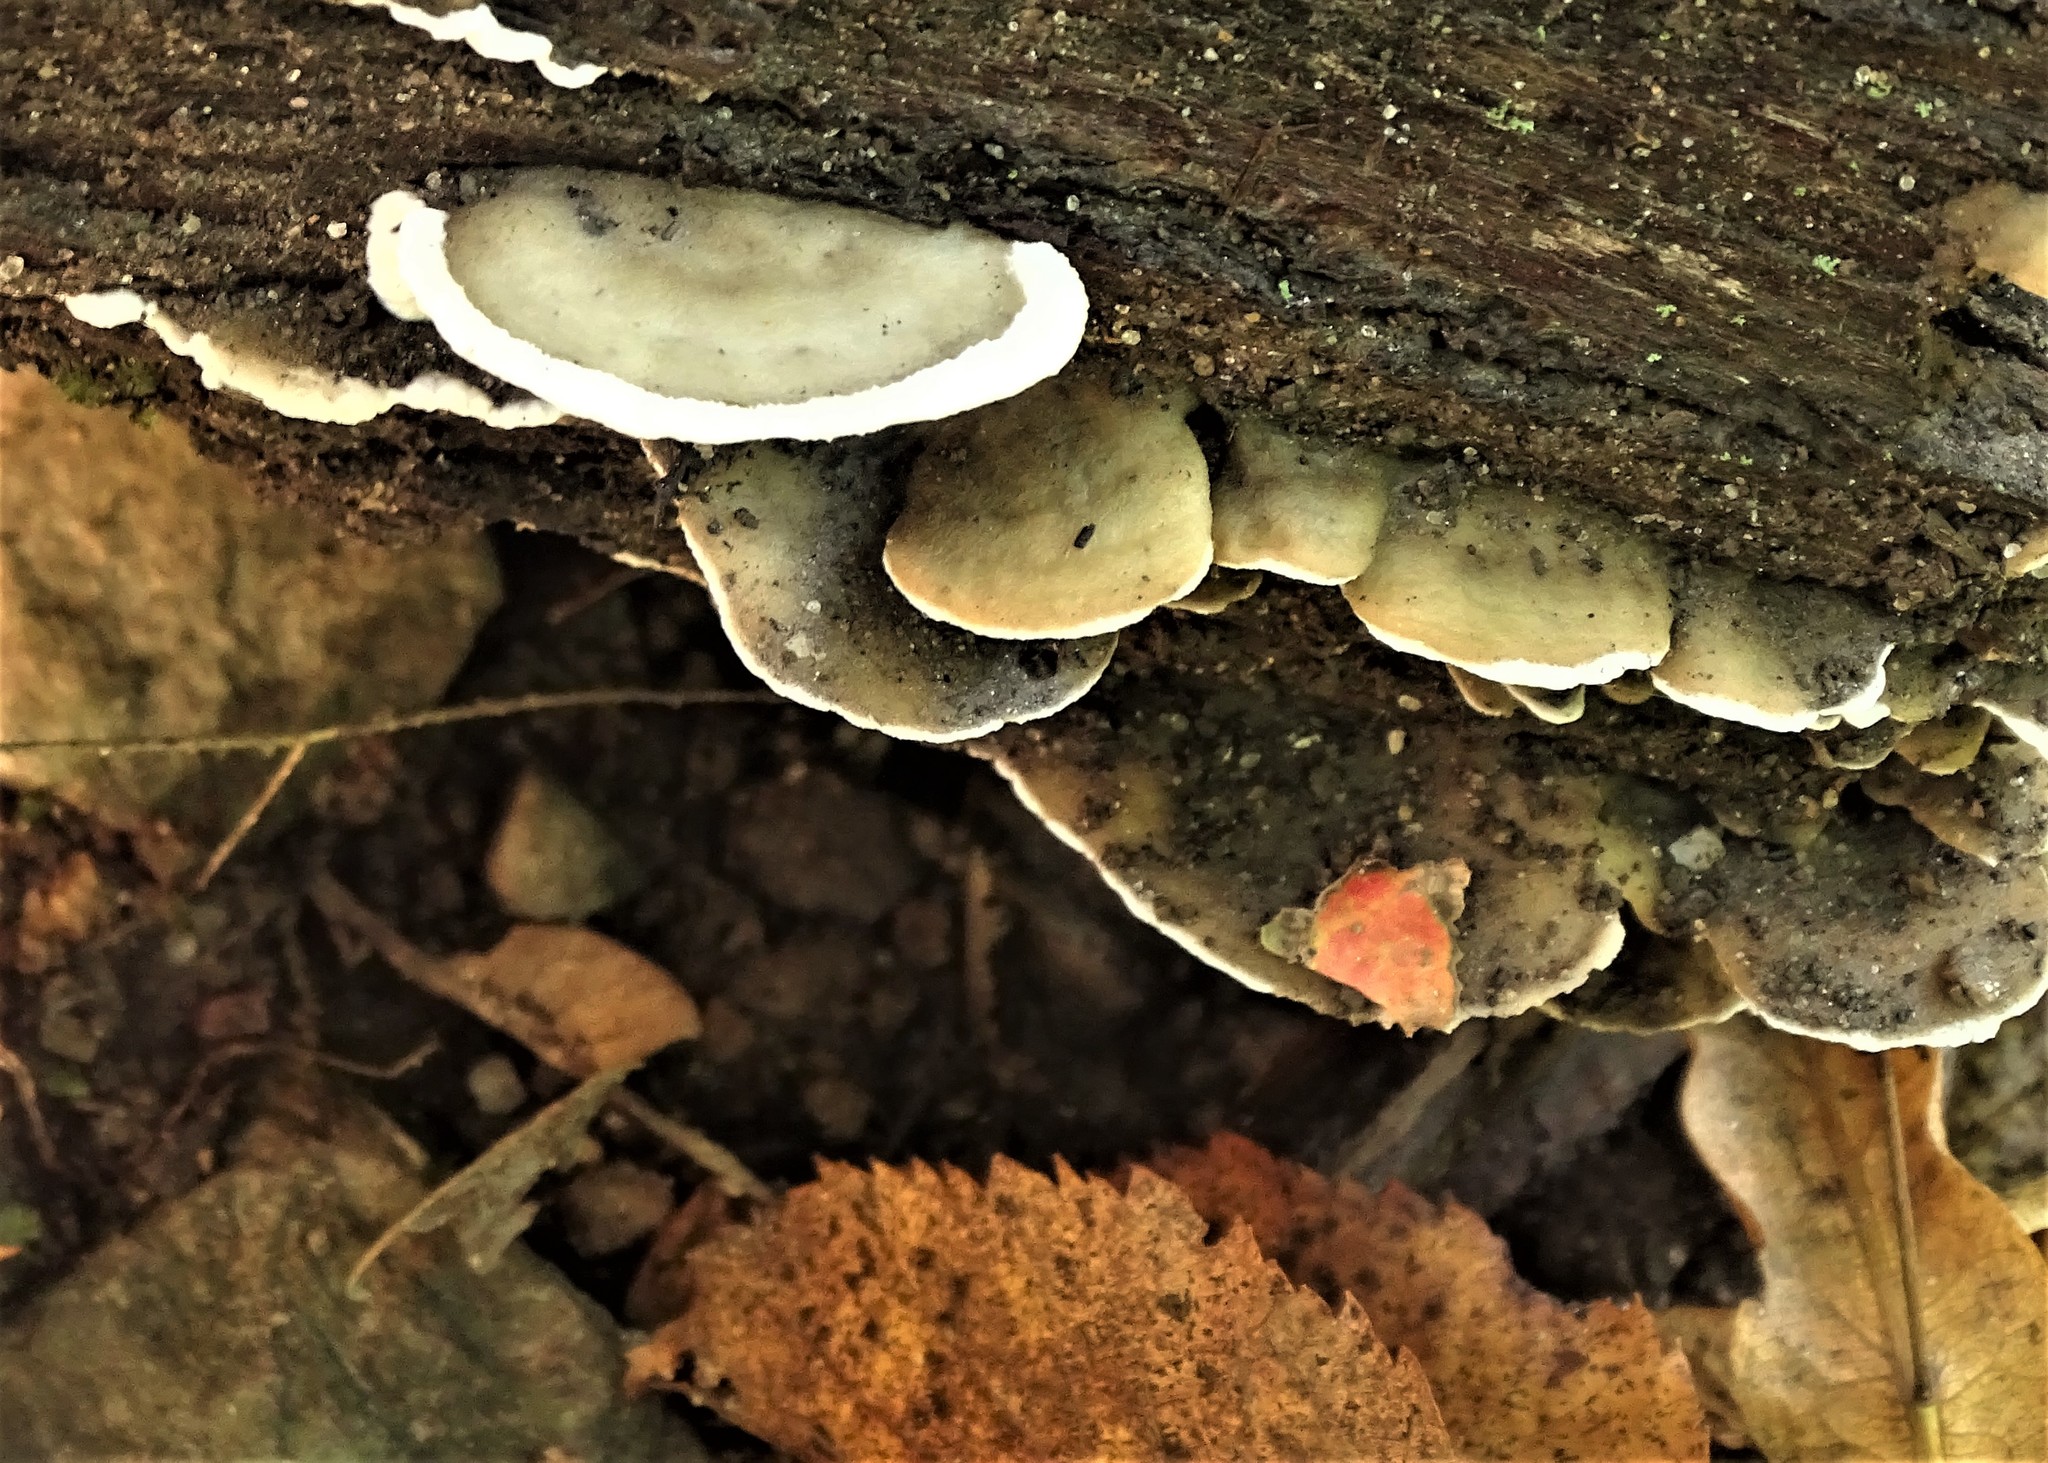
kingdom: Fungi
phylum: Basidiomycota
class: Agaricomycetes
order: Polyporales
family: Phanerochaetaceae
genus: Bjerkandera
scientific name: Bjerkandera adusta
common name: Smoky bracket
